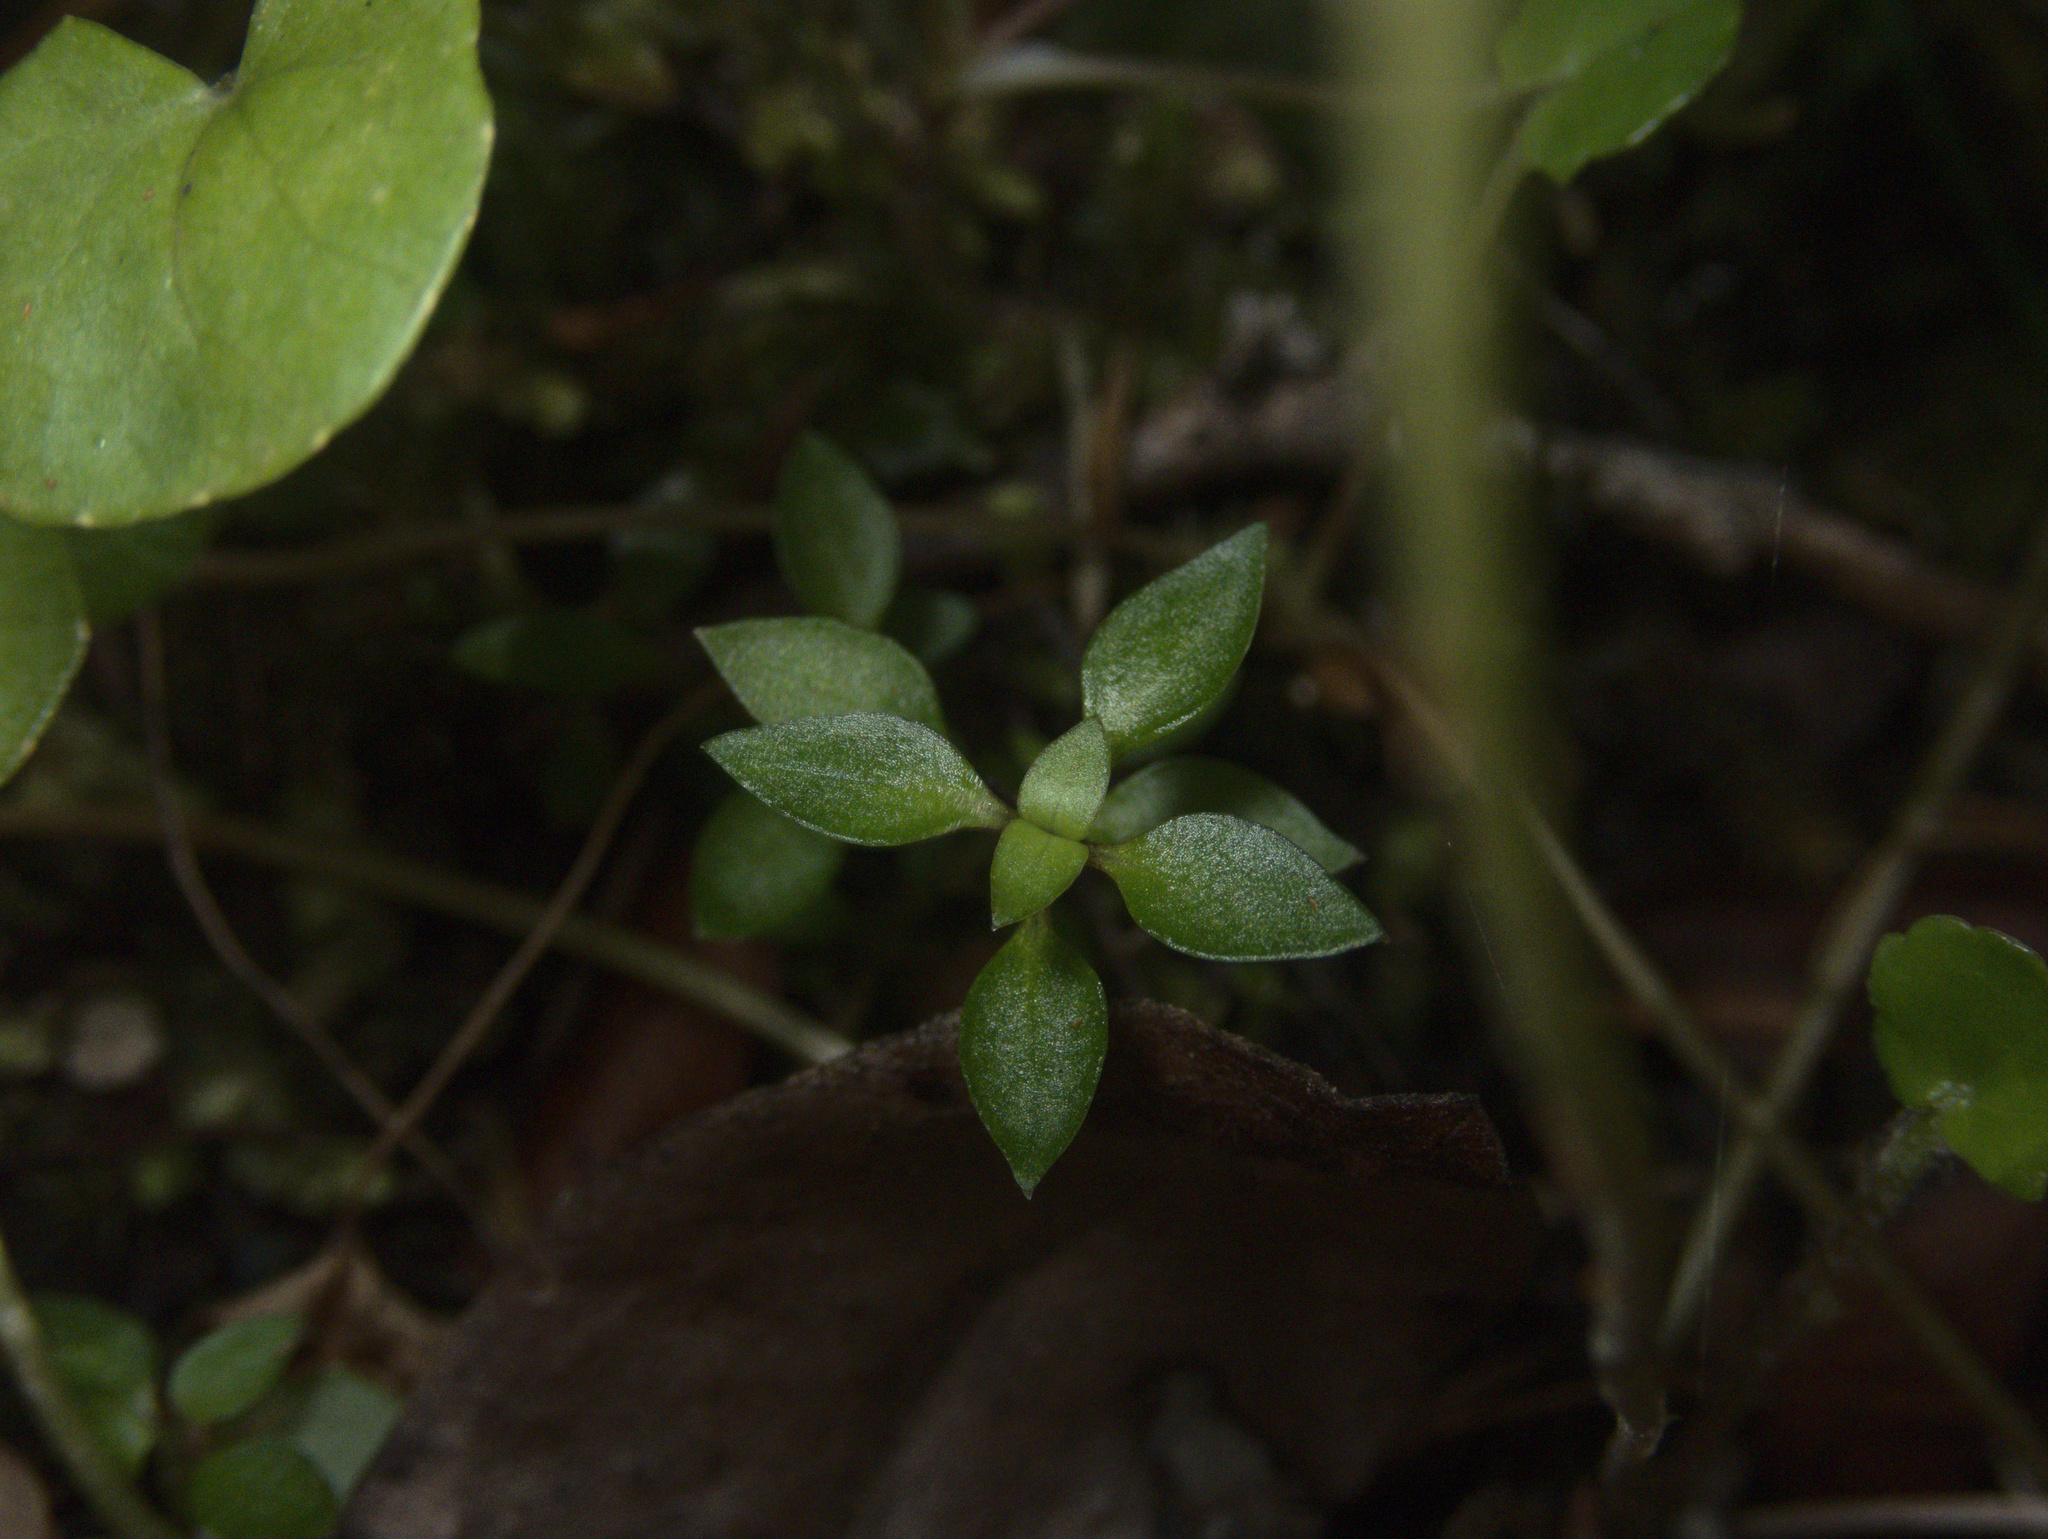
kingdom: Plantae
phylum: Tracheophyta
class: Magnoliopsida
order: Gentianales
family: Rubiaceae
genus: Nertera
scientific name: Nertera granadensis
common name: Beadplant
